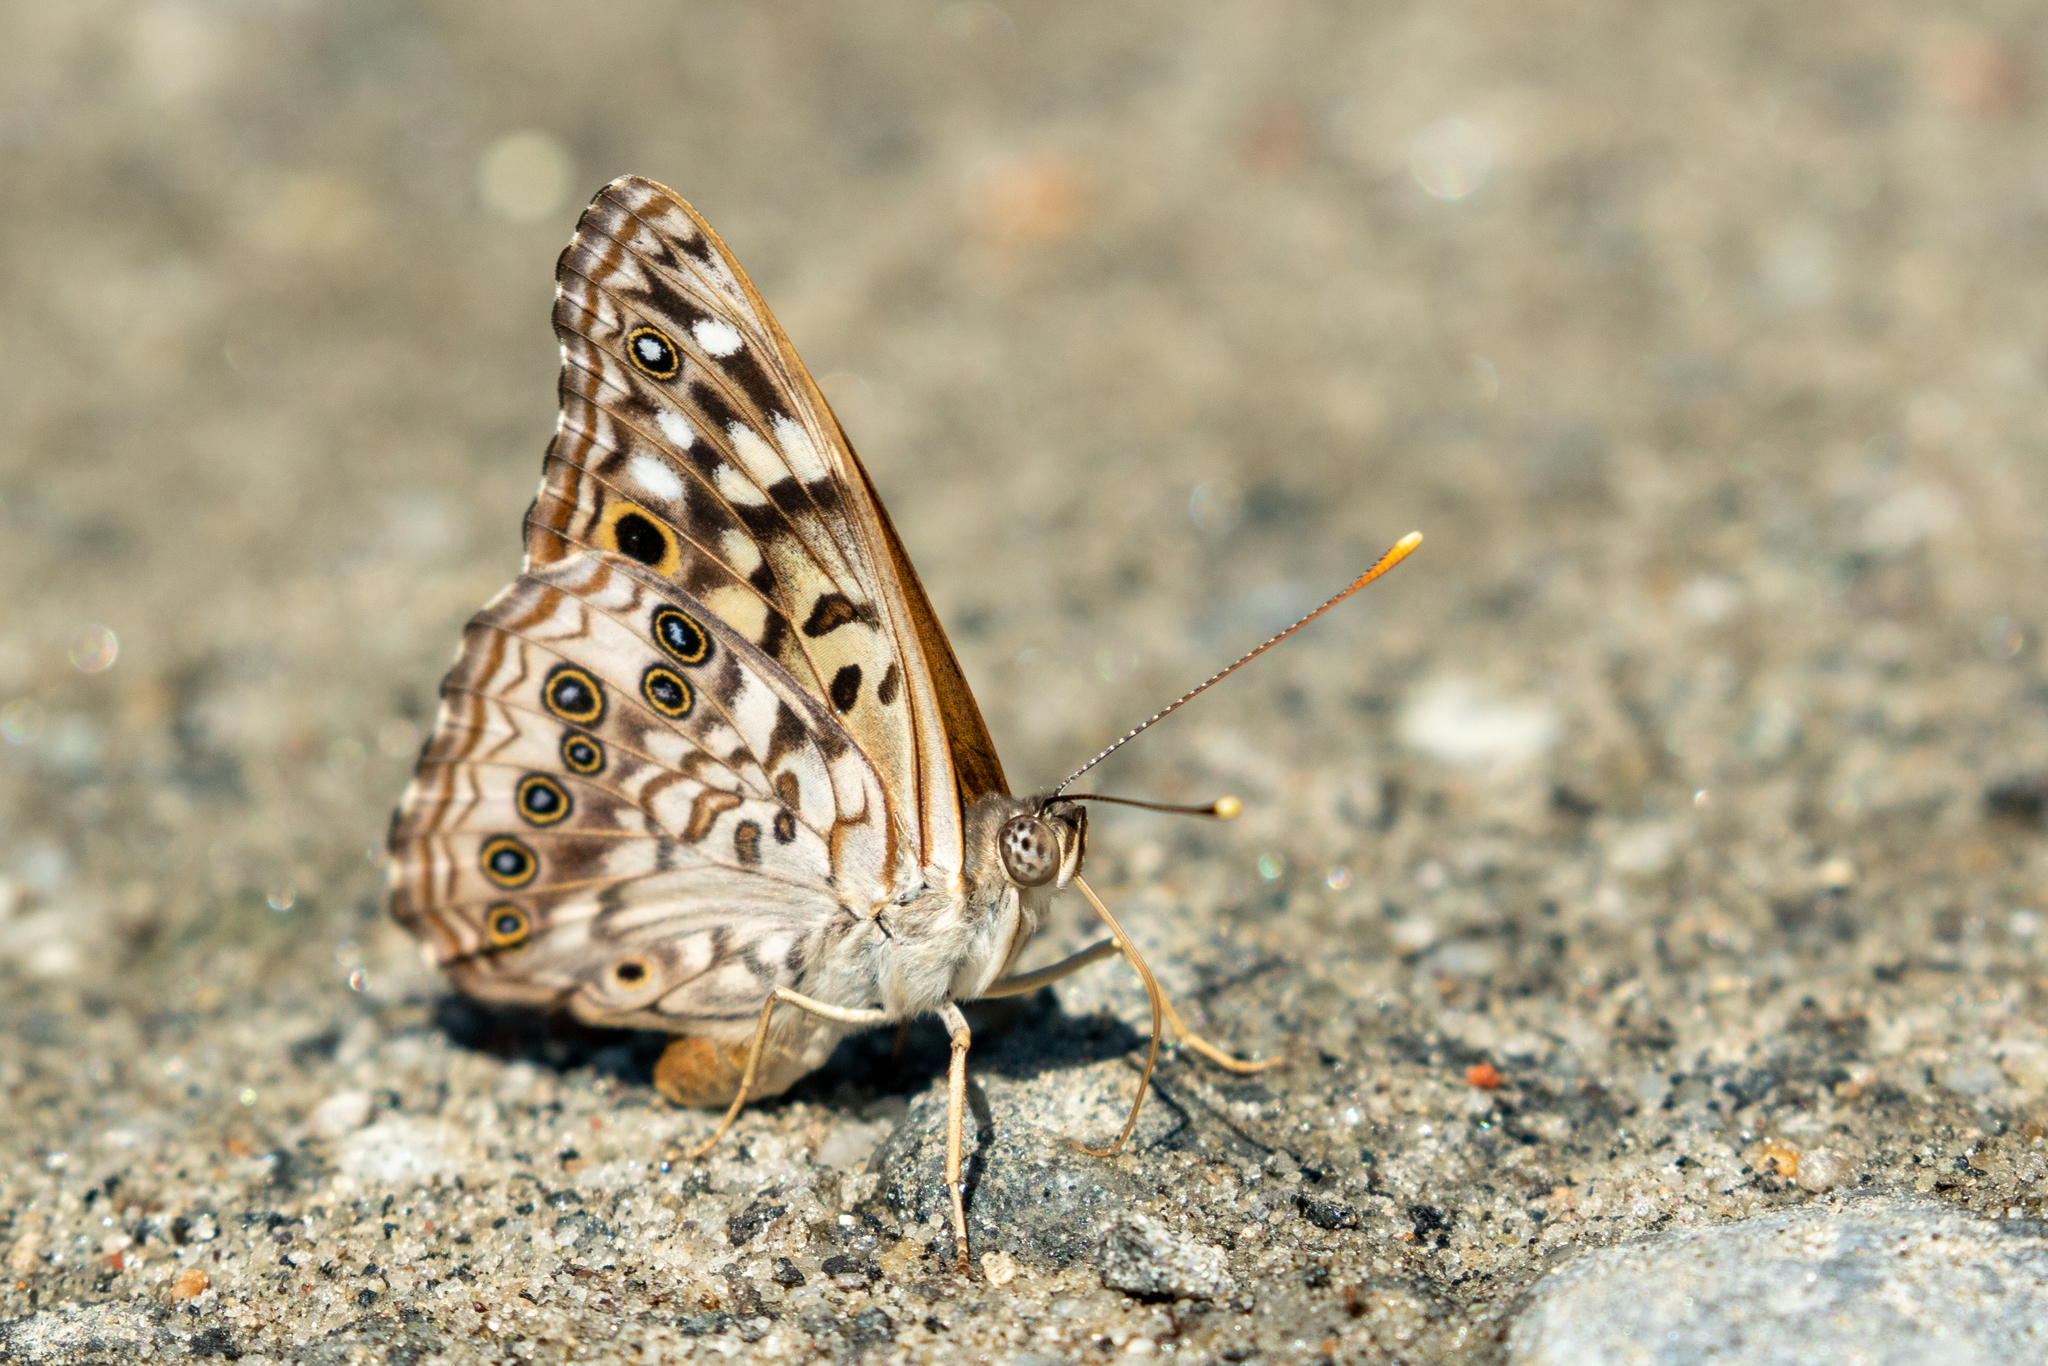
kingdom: Animalia
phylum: Arthropoda
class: Insecta
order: Lepidoptera
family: Nymphalidae
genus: Asterocampa
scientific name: Asterocampa celtis
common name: Hackberry emperor
